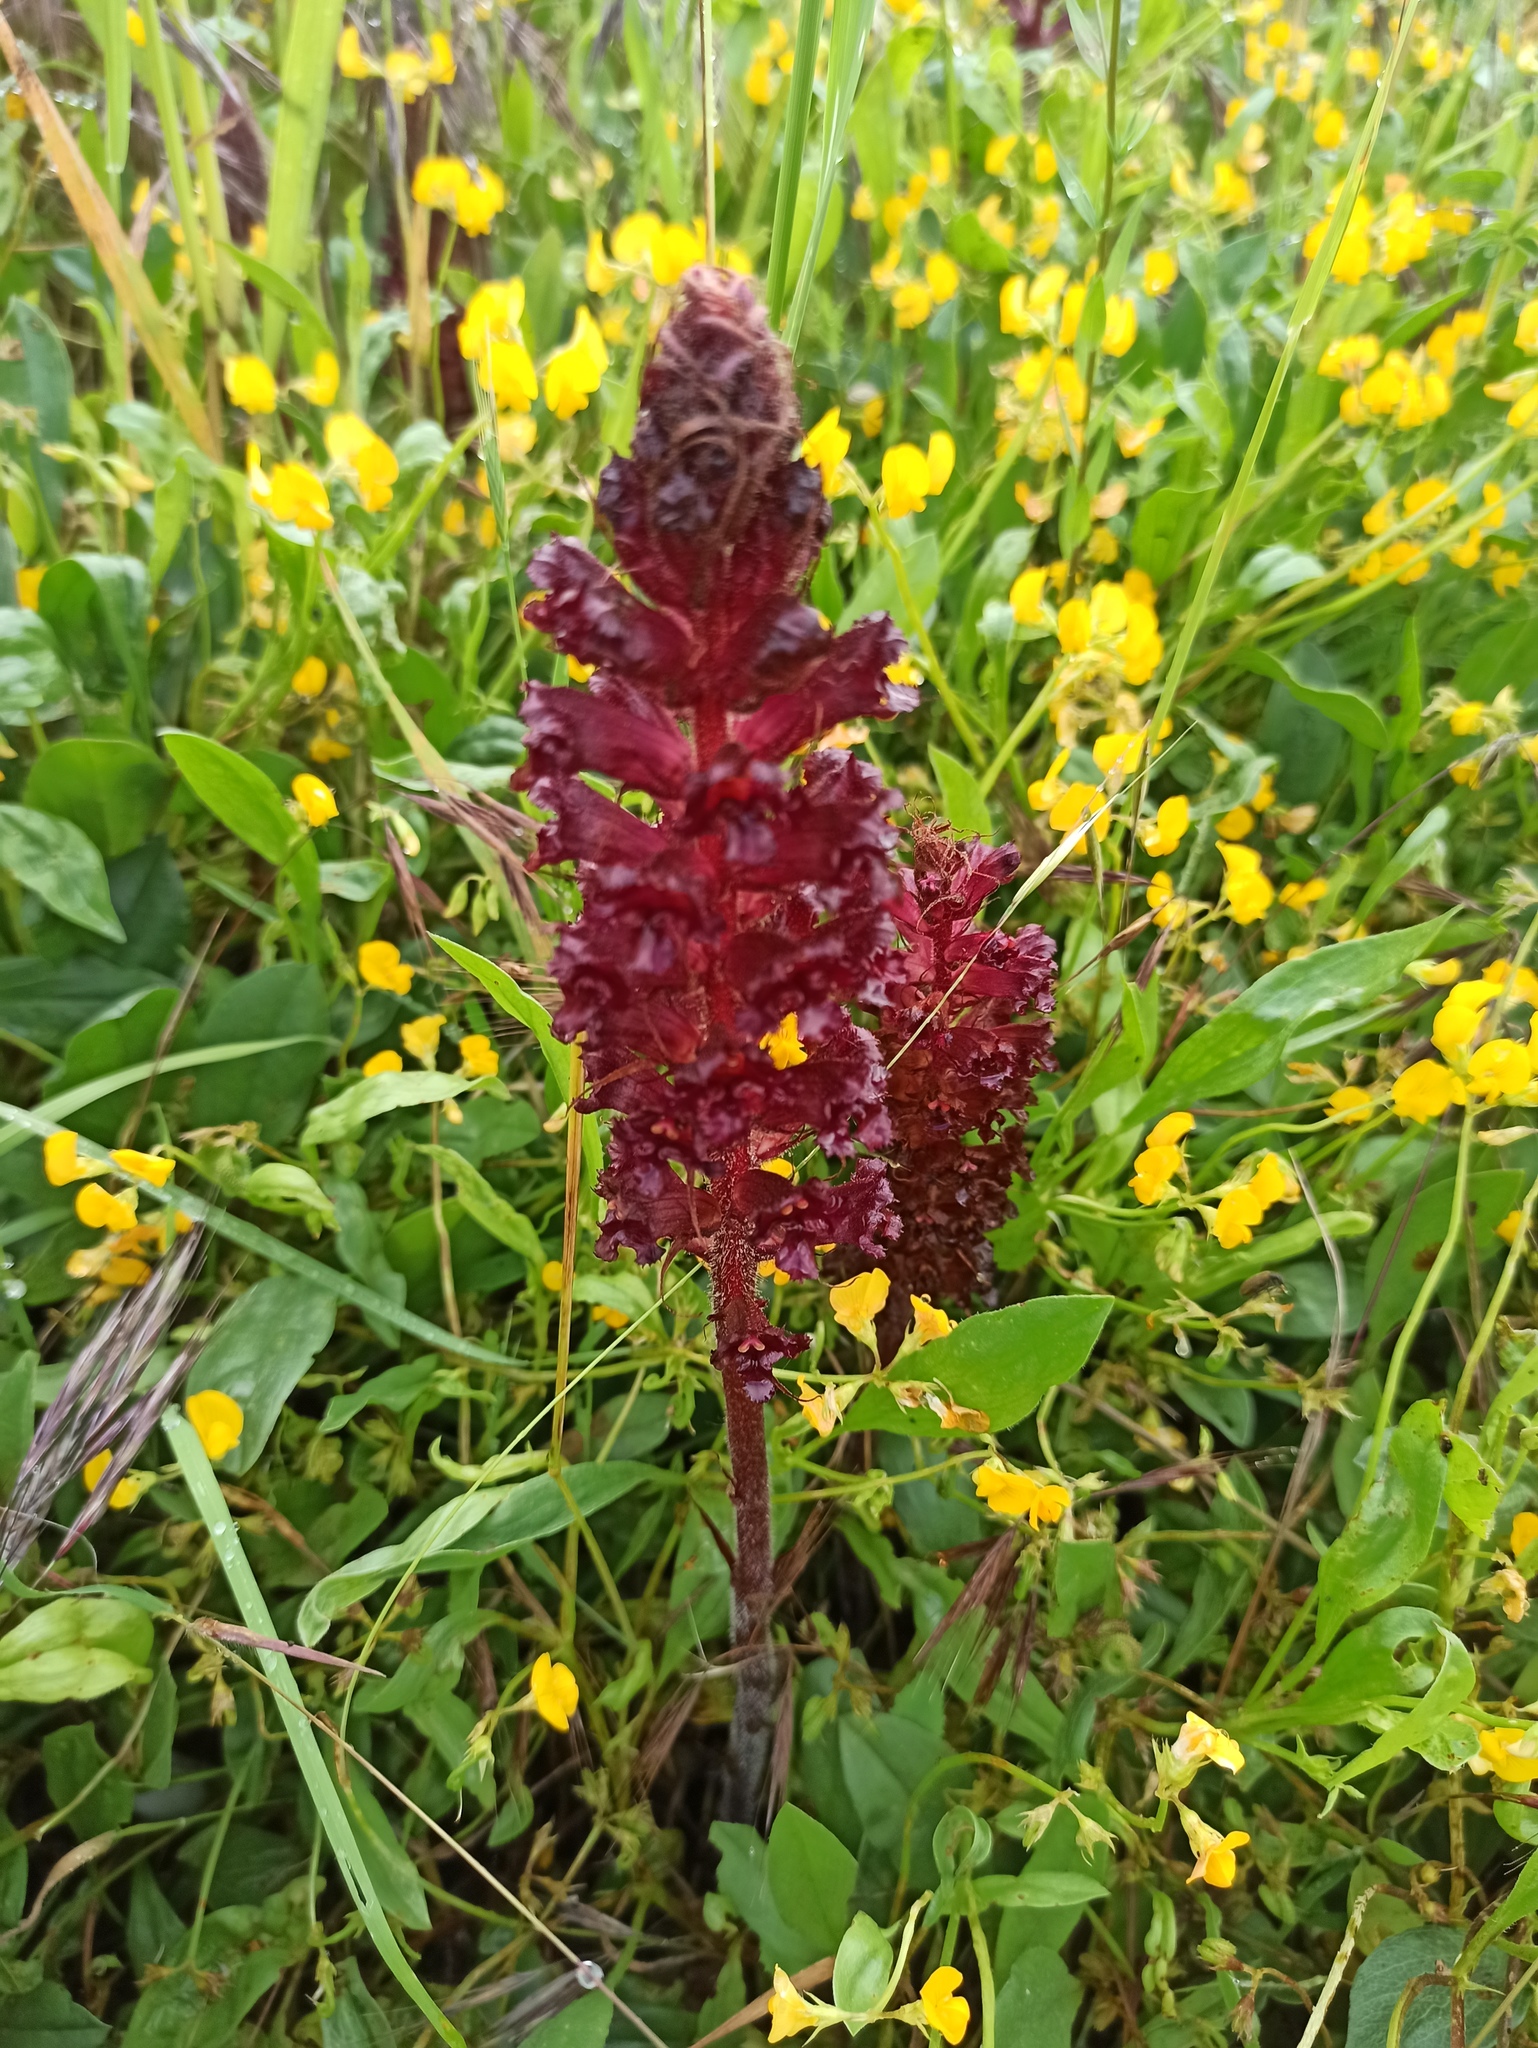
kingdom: Plantae
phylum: Tracheophyta
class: Magnoliopsida
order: Lamiales
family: Orobanchaceae
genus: Orobanche
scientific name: Orobanche foetida
